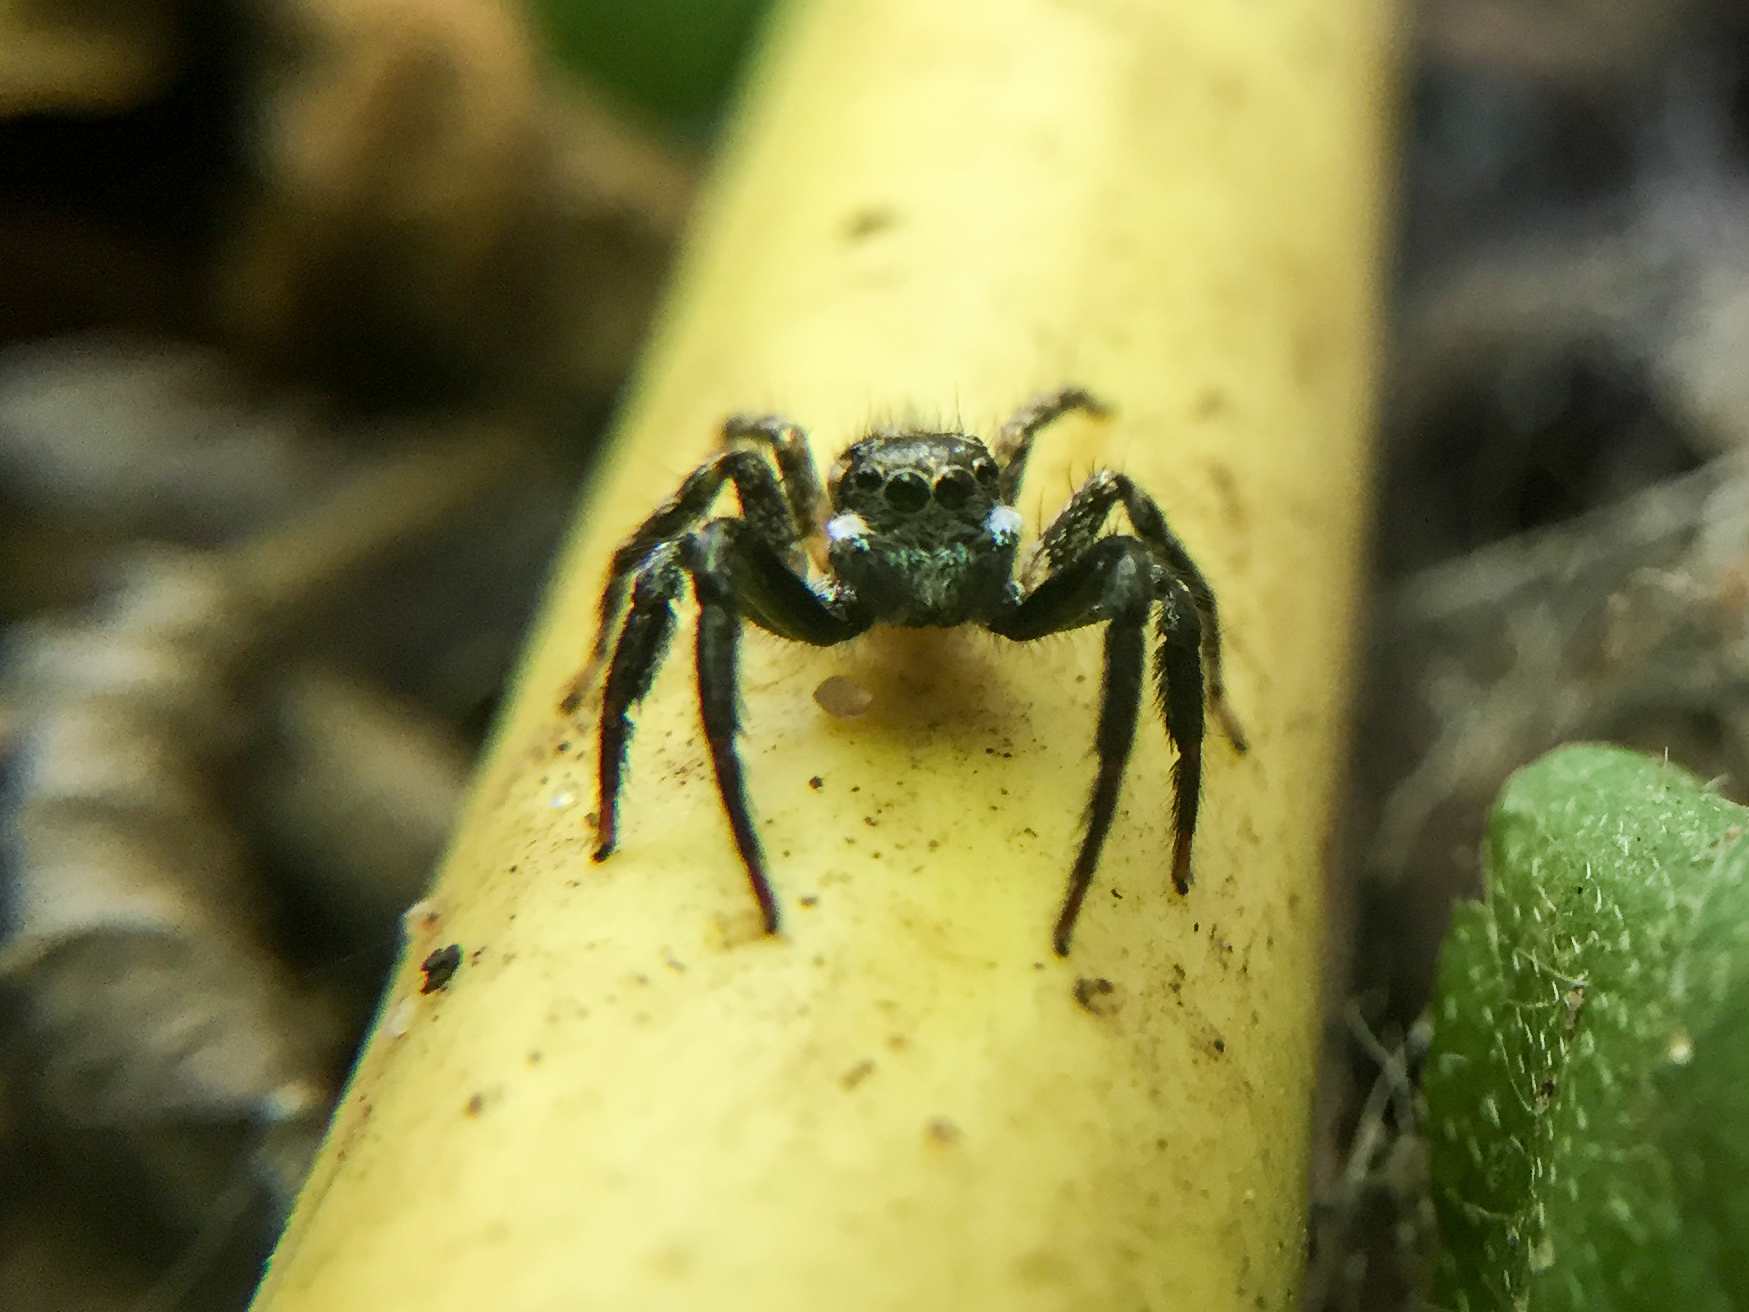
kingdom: Animalia
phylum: Arthropoda
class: Arachnida
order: Araneae
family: Salticidae
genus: Anasaitis
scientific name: Anasaitis canosa
